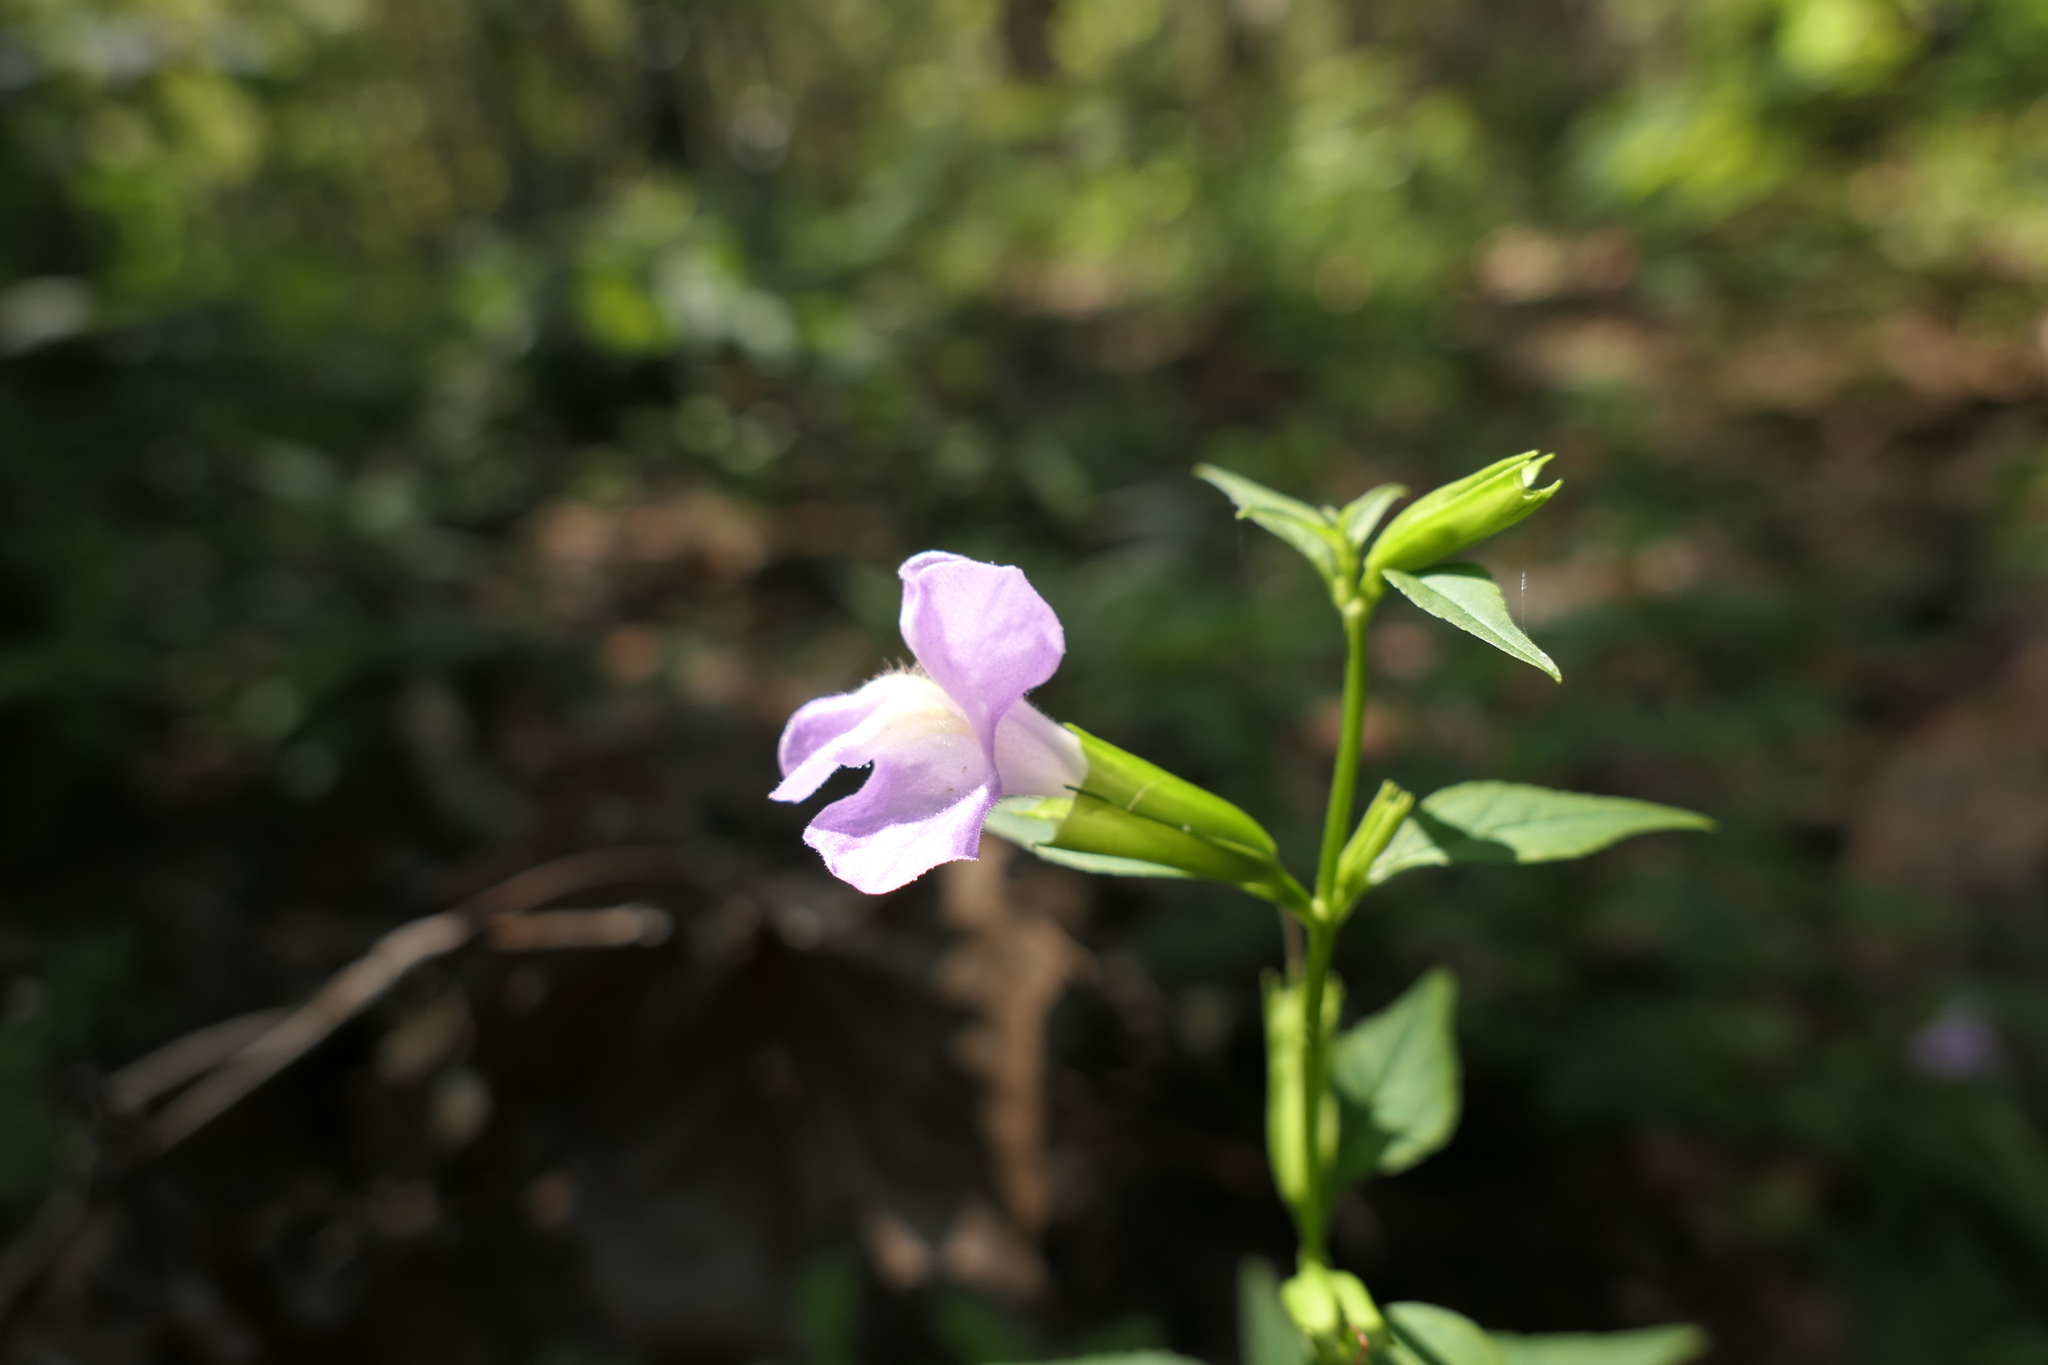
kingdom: Plantae
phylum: Tracheophyta
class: Magnoliopsida
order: Lamiales
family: Phrymaceae
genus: Mimulus
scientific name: Mimulus alatus
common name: Sharp-wing monkey-flower
